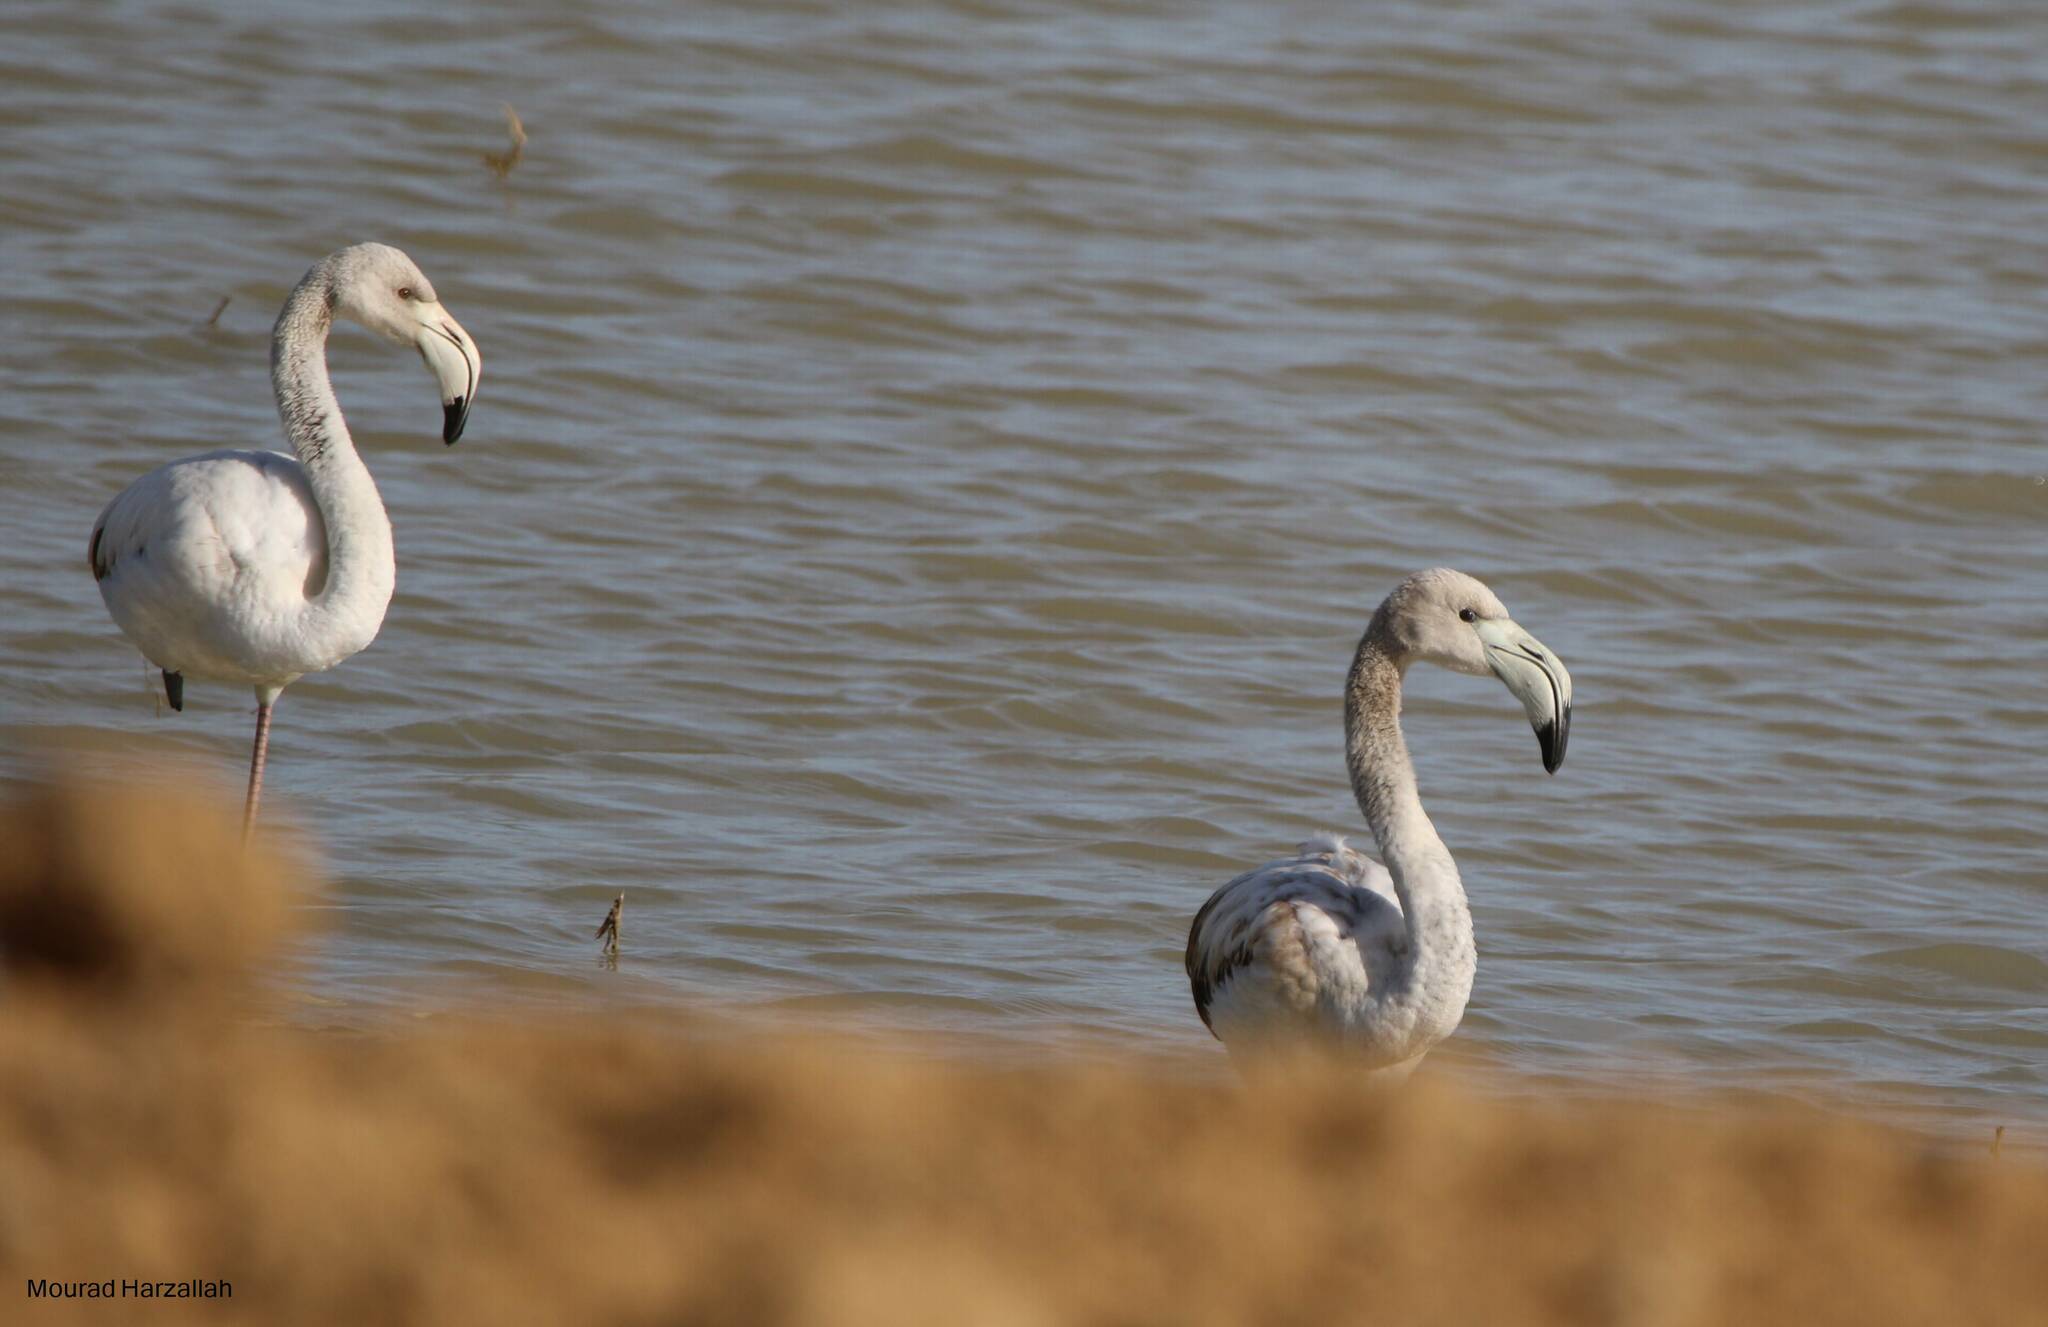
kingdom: Animalia
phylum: Chordata
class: Aves
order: Phoenicopteriformes
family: Phoenicopteridae
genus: Phoenicopterus
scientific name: Phoenicopterus roseus
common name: Greater flamingo
